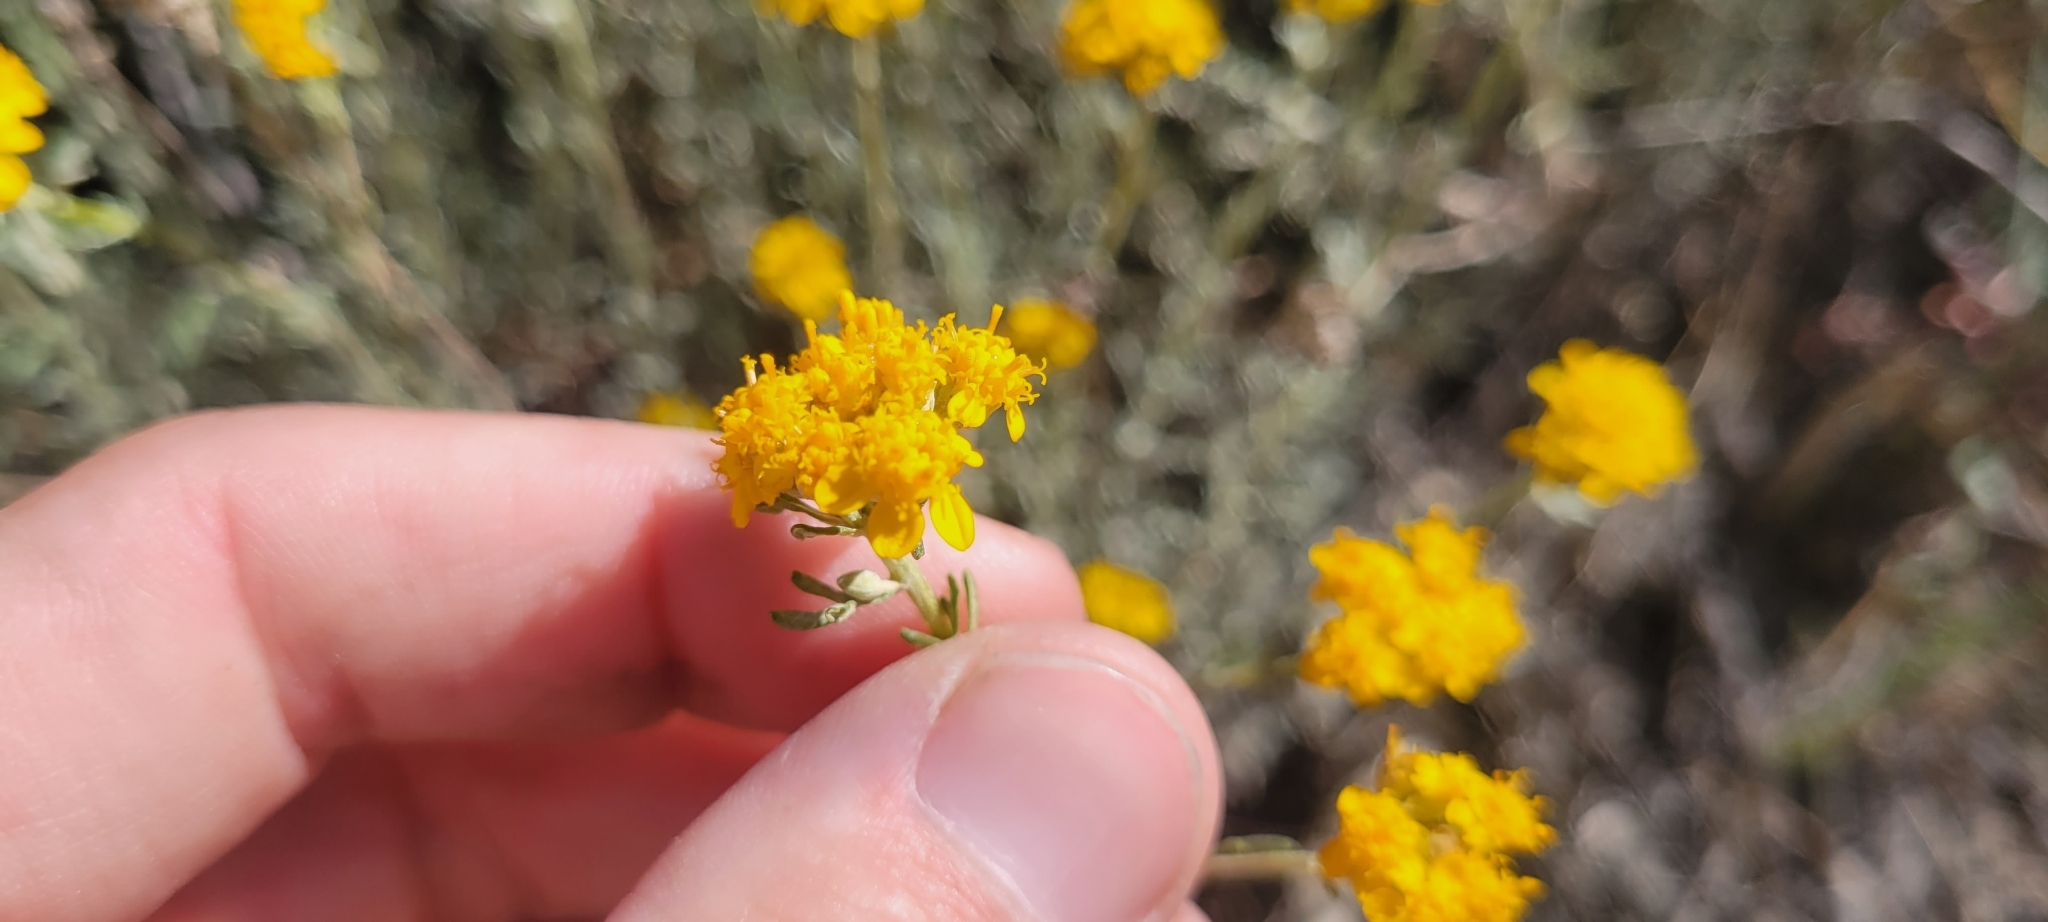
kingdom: Plantae
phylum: Tracheophyta
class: Magnoliopsida
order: Asterales
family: Asteraceae
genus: Eriophyllum
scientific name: Eriophyllum confertiflorum
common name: Golden-yarrow
